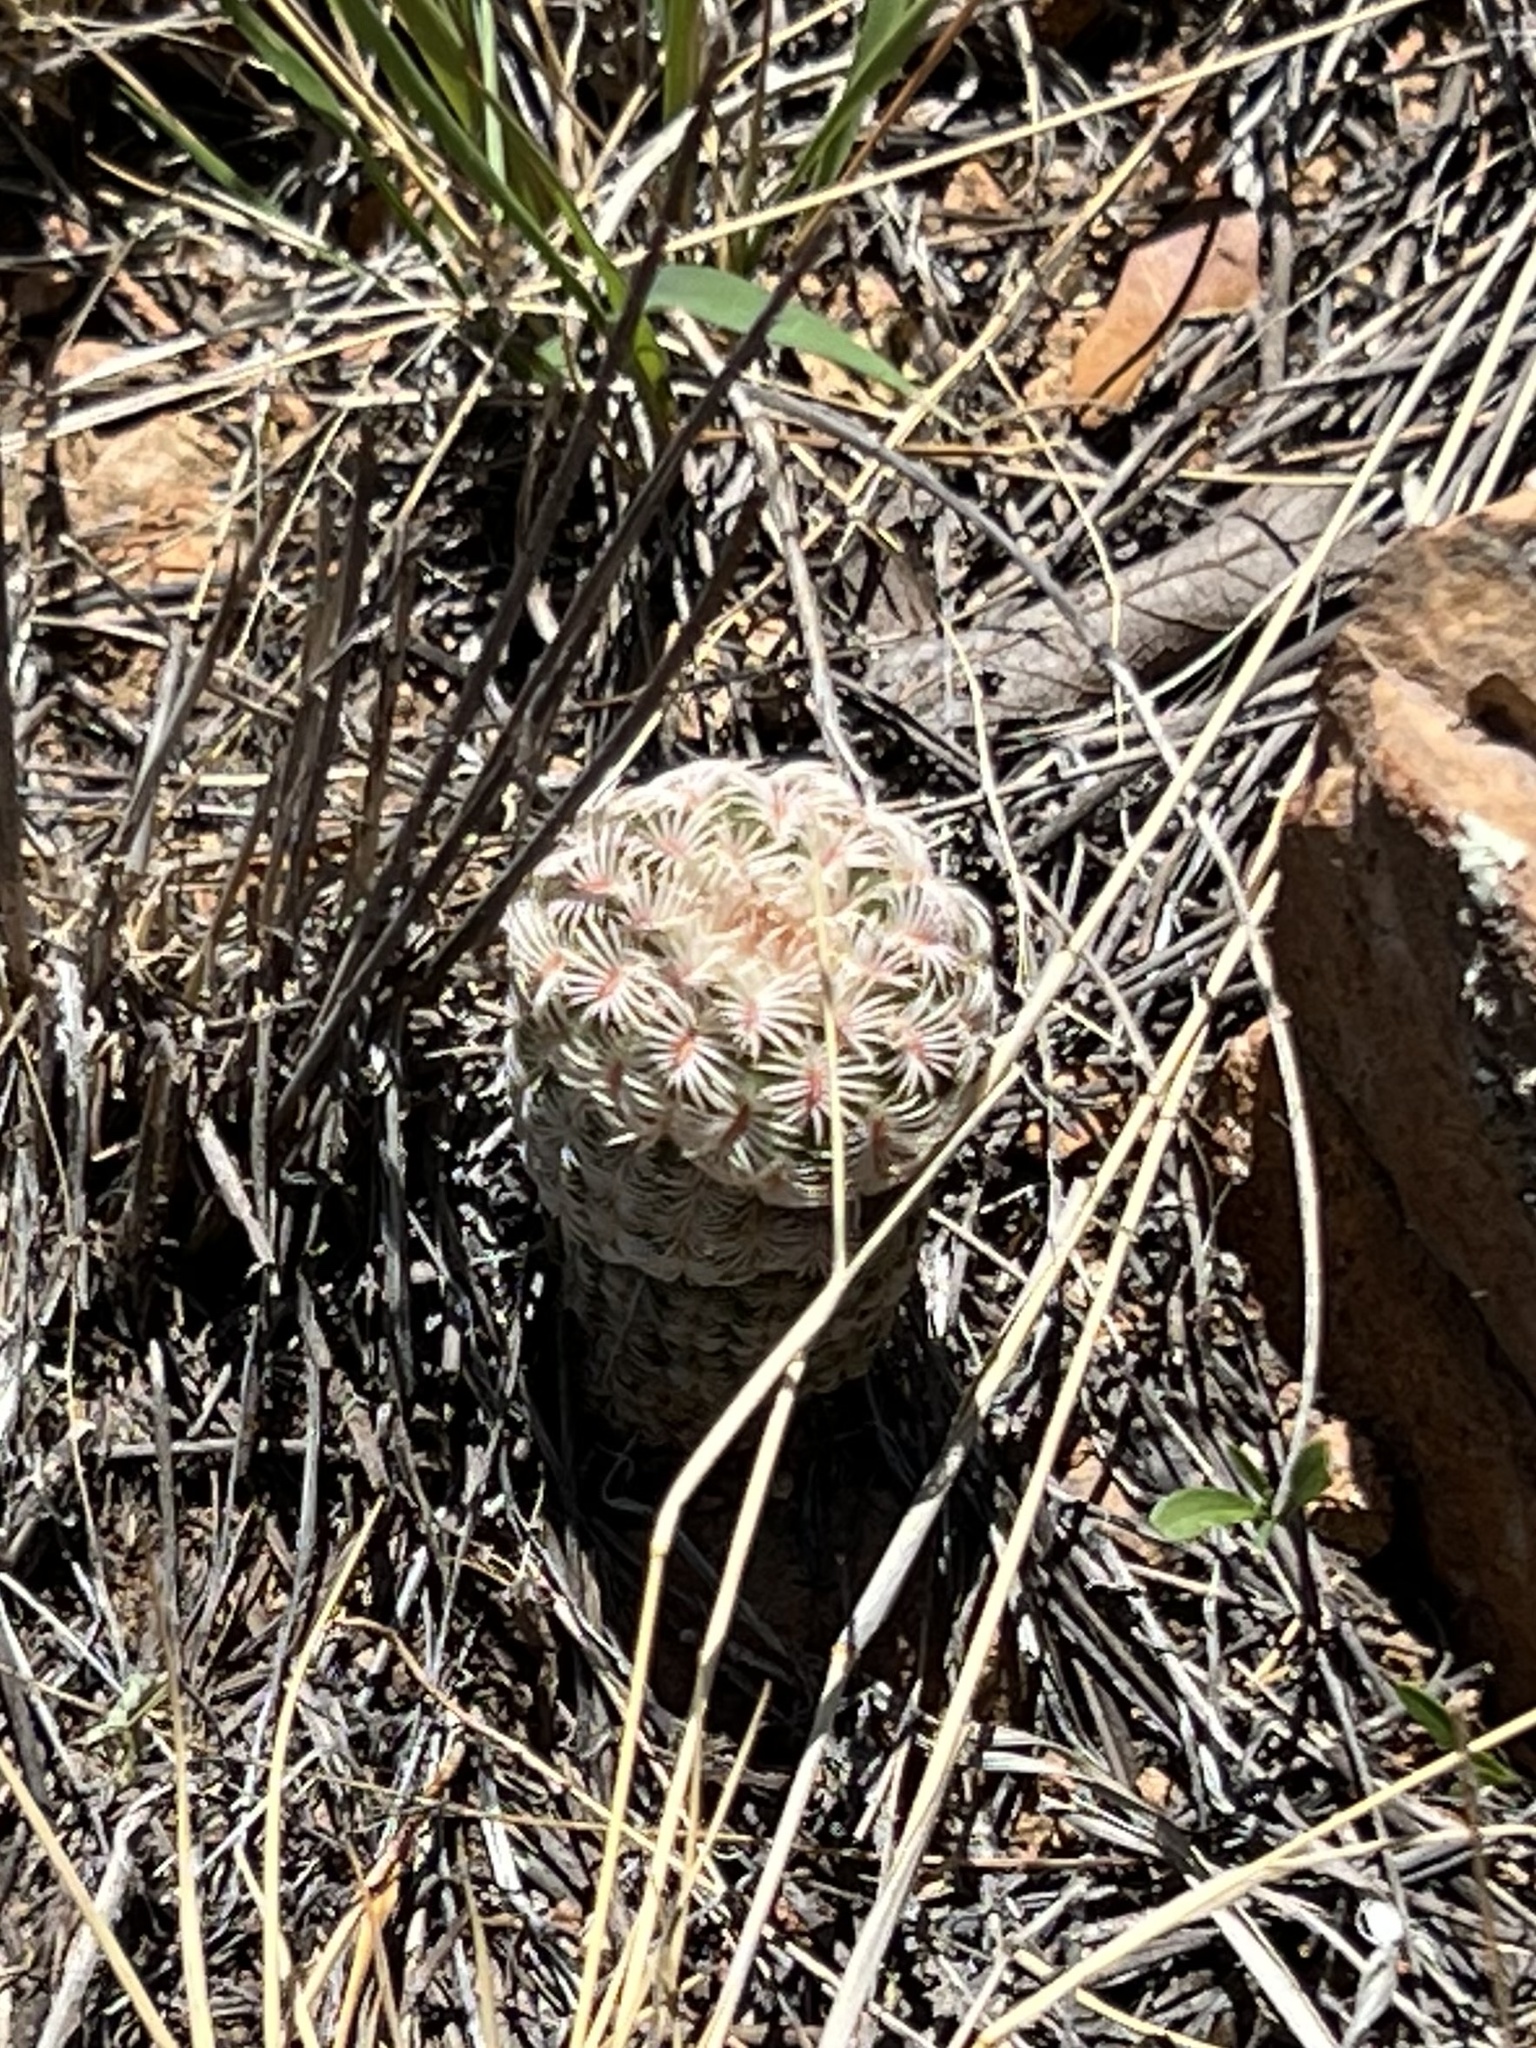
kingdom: Plantae
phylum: Tracheophyta
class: Magnoliopsida
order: Caryophyllales
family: Cactaceae
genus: Echinocereus
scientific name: Echinocereus rigidissimus
